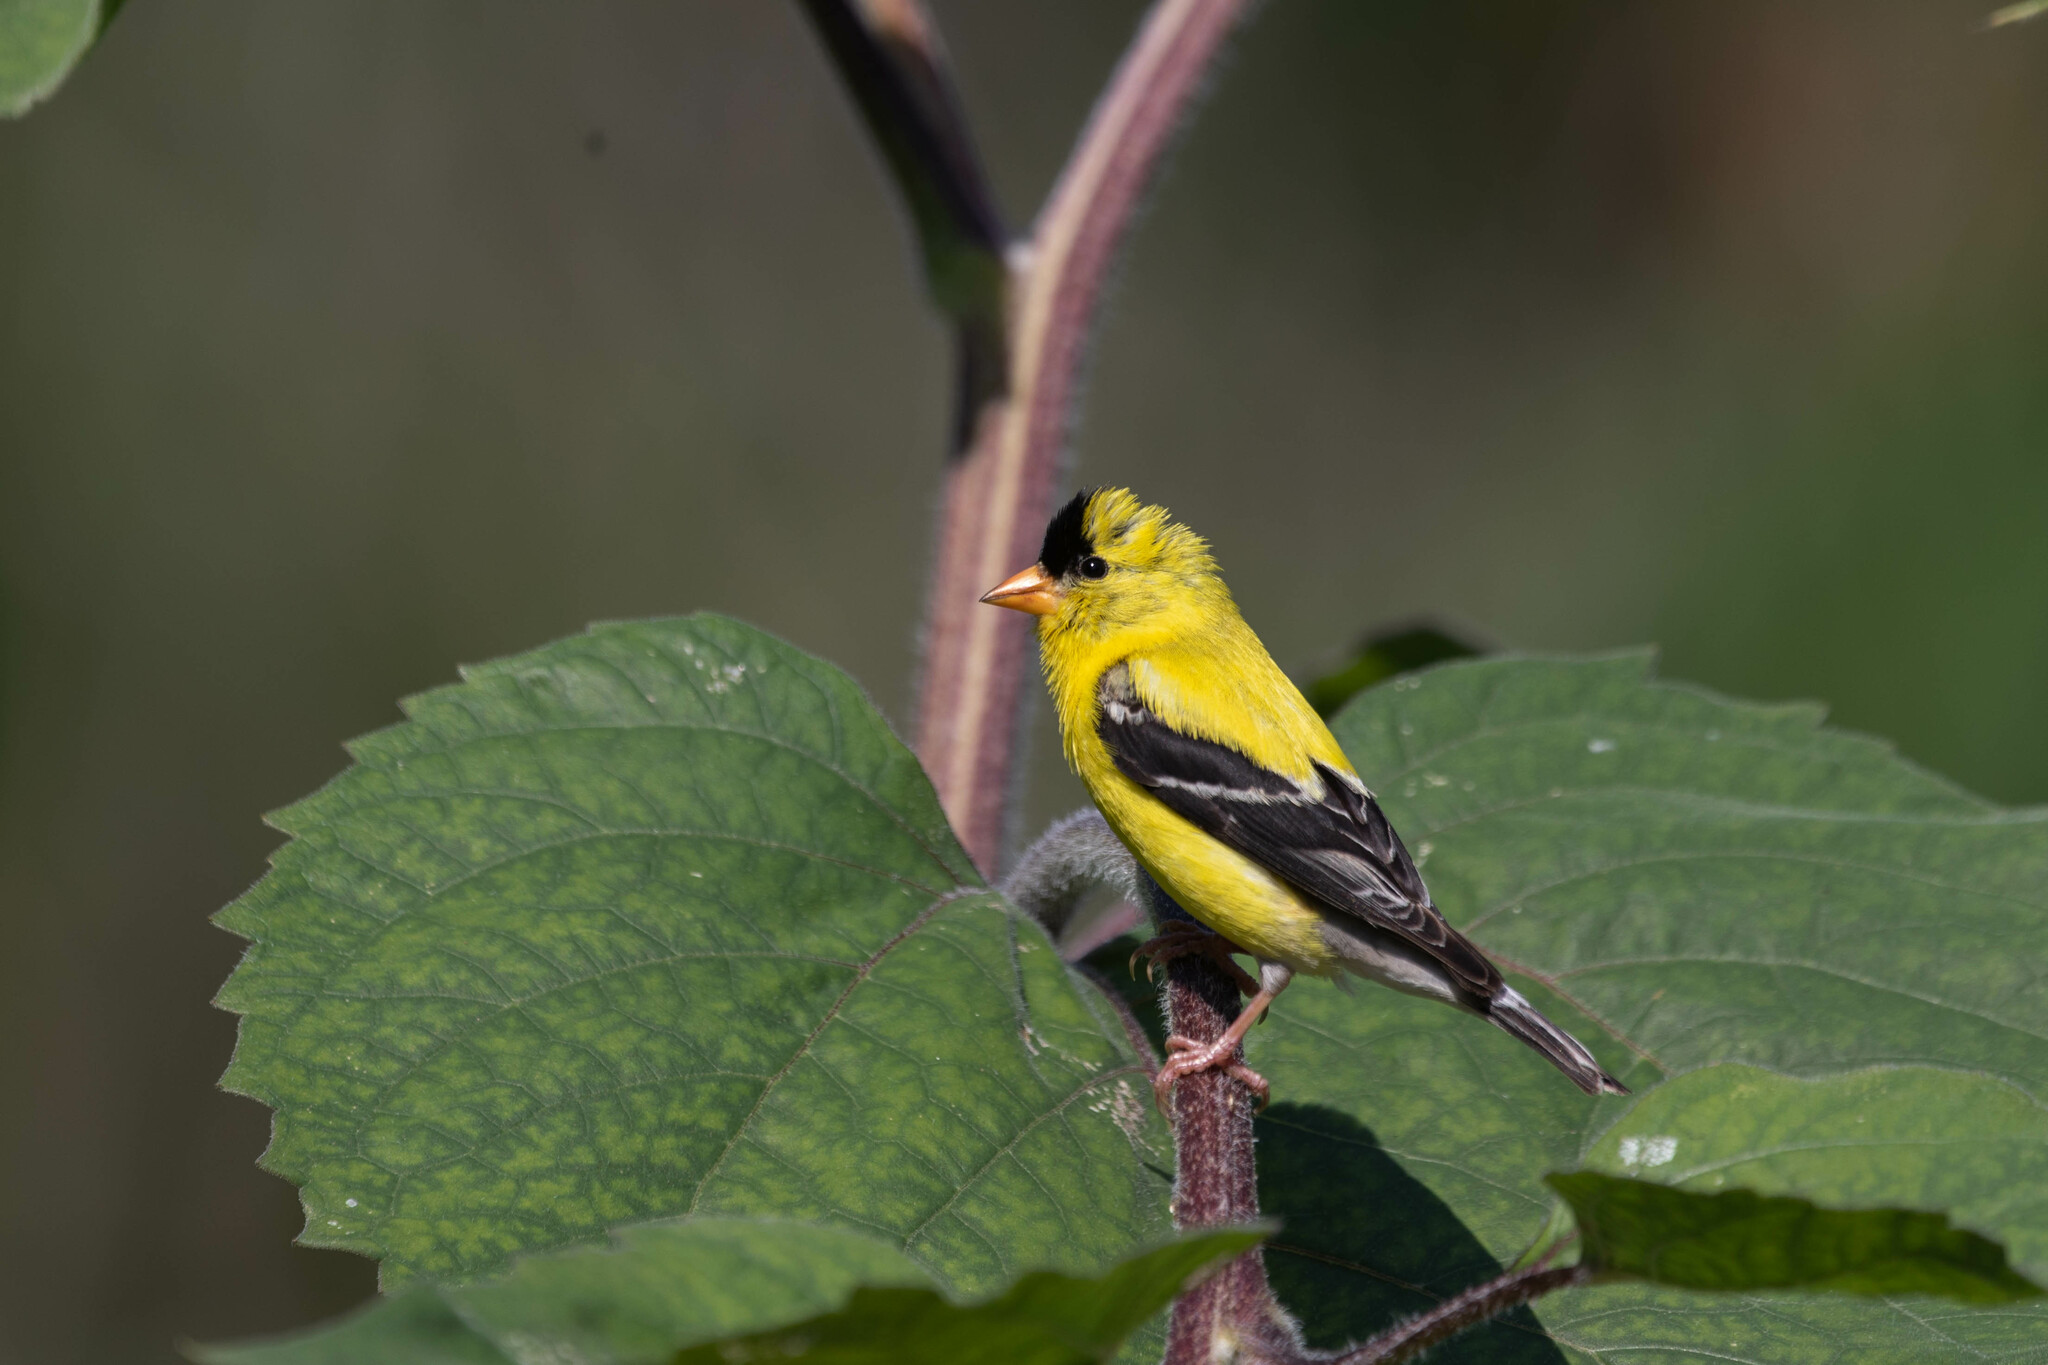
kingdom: Animalia
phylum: Chordata
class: Aves
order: Passeriformes
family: Fringillidae
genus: Spinus
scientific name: Spinus tristis
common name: American goldfinch
